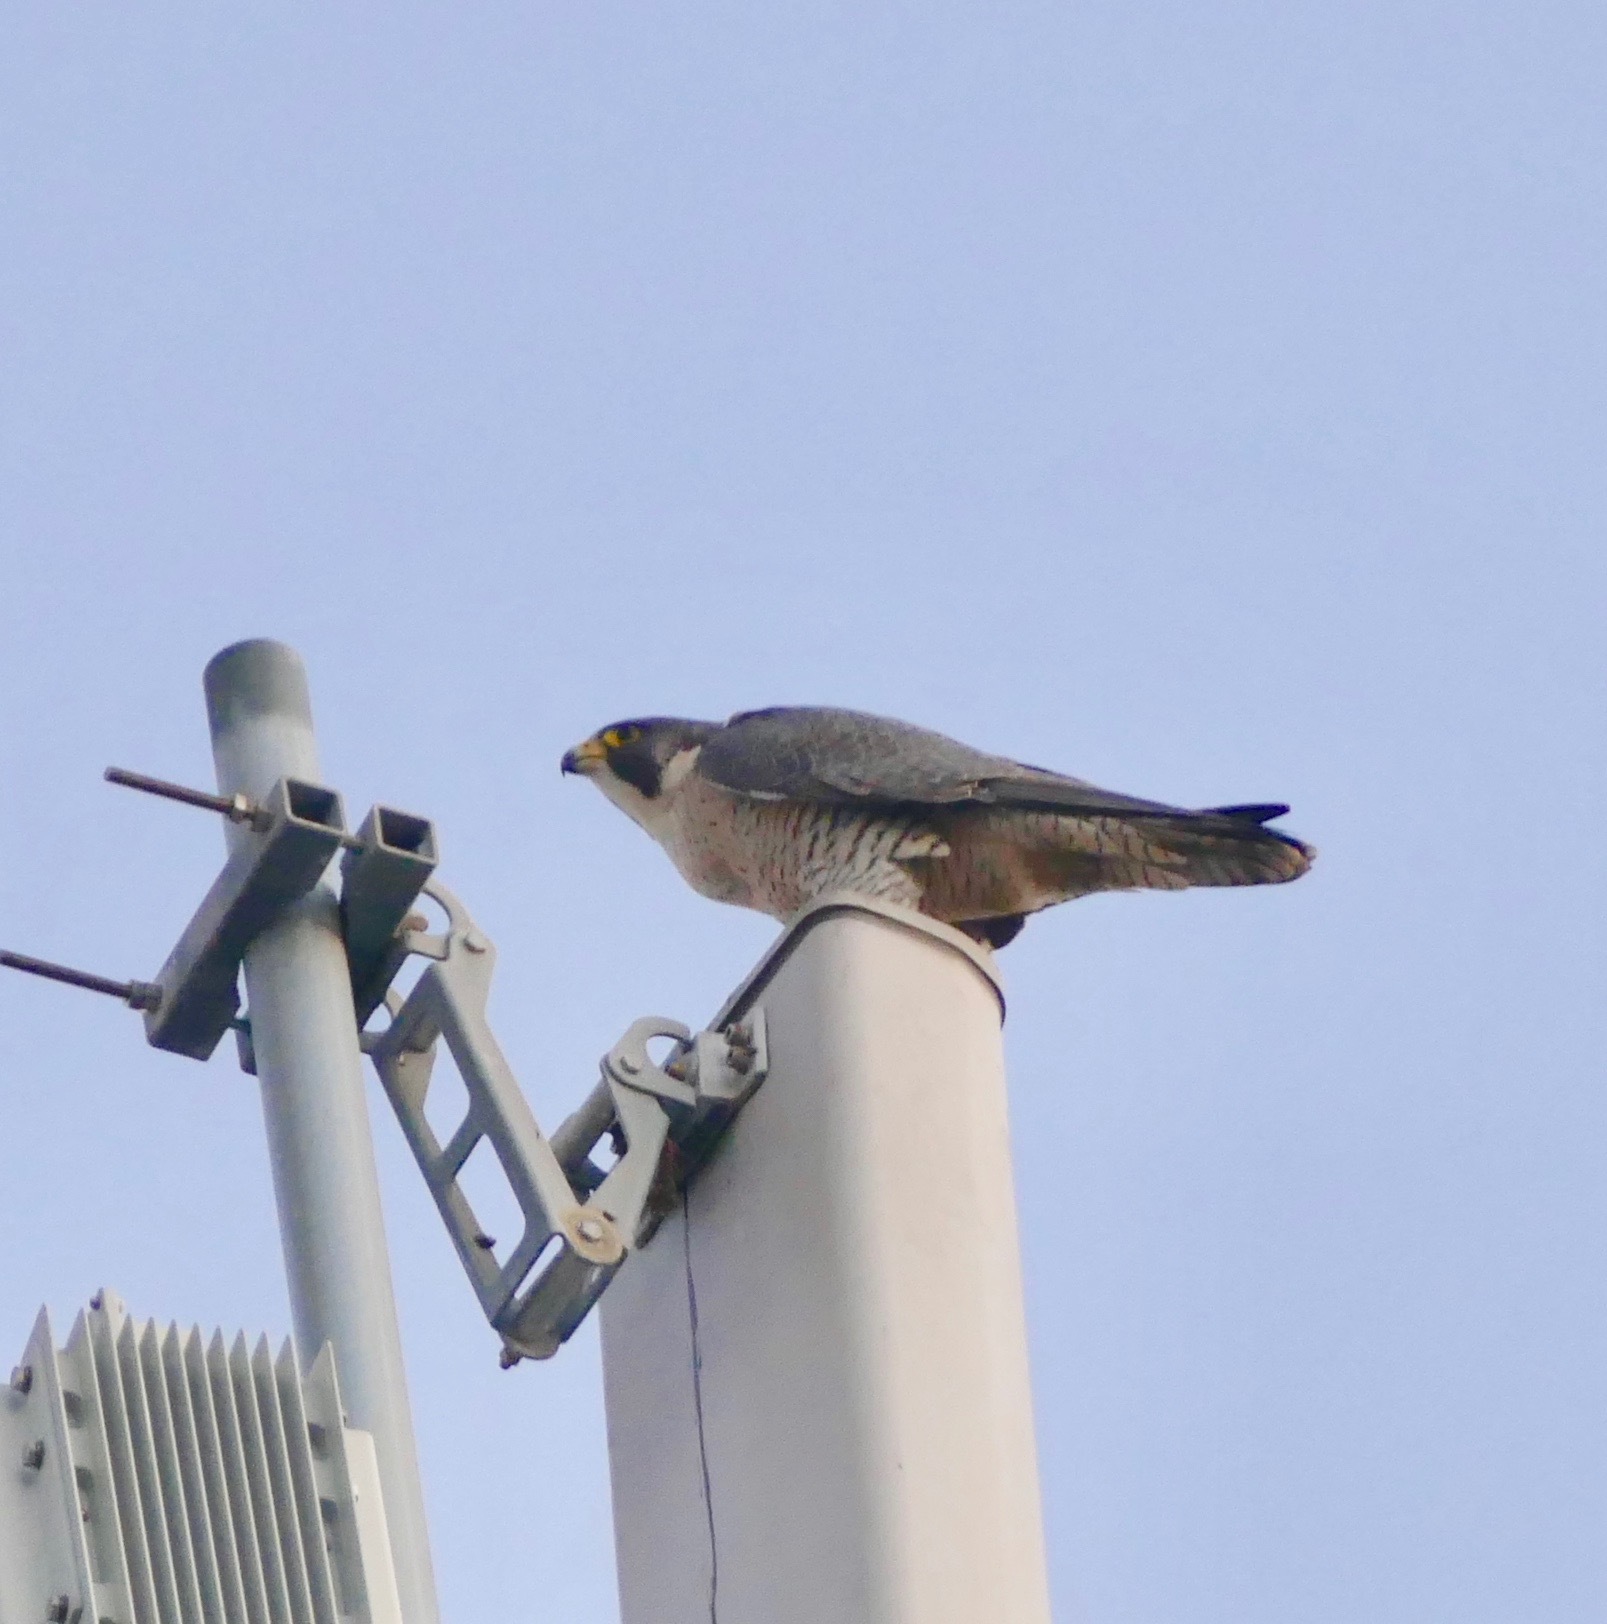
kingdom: Animalia
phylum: Chordata
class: Aves
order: Falconiformes
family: Falconidae
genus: Falco
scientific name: Falco peregrinus
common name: Peregrine falcon
